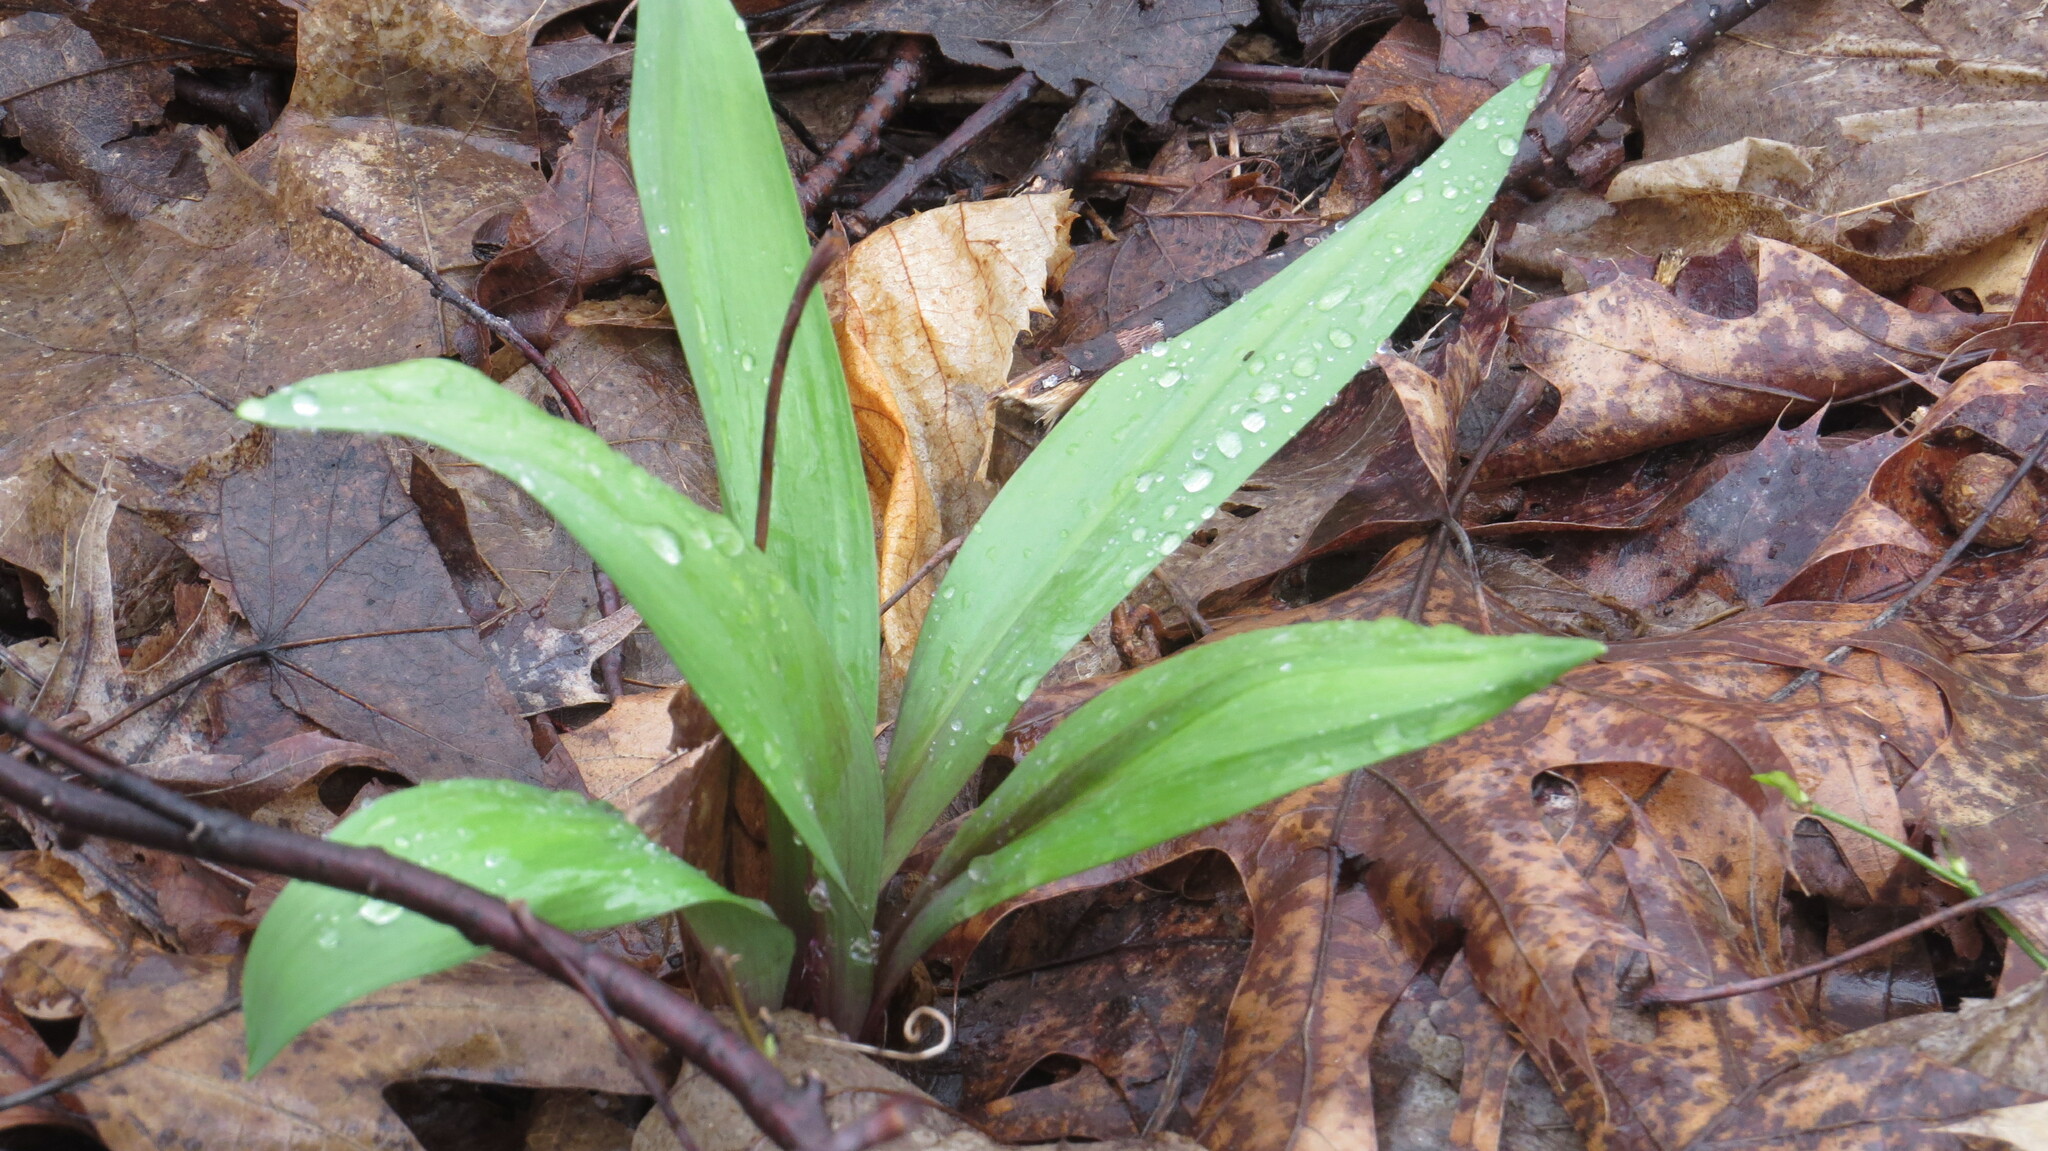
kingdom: Plantae
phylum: Tracheophyta
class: Liliopsida
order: Asparagales
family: Amaryllidaceae
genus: Allium
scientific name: Allium tricoccum
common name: Ramp
